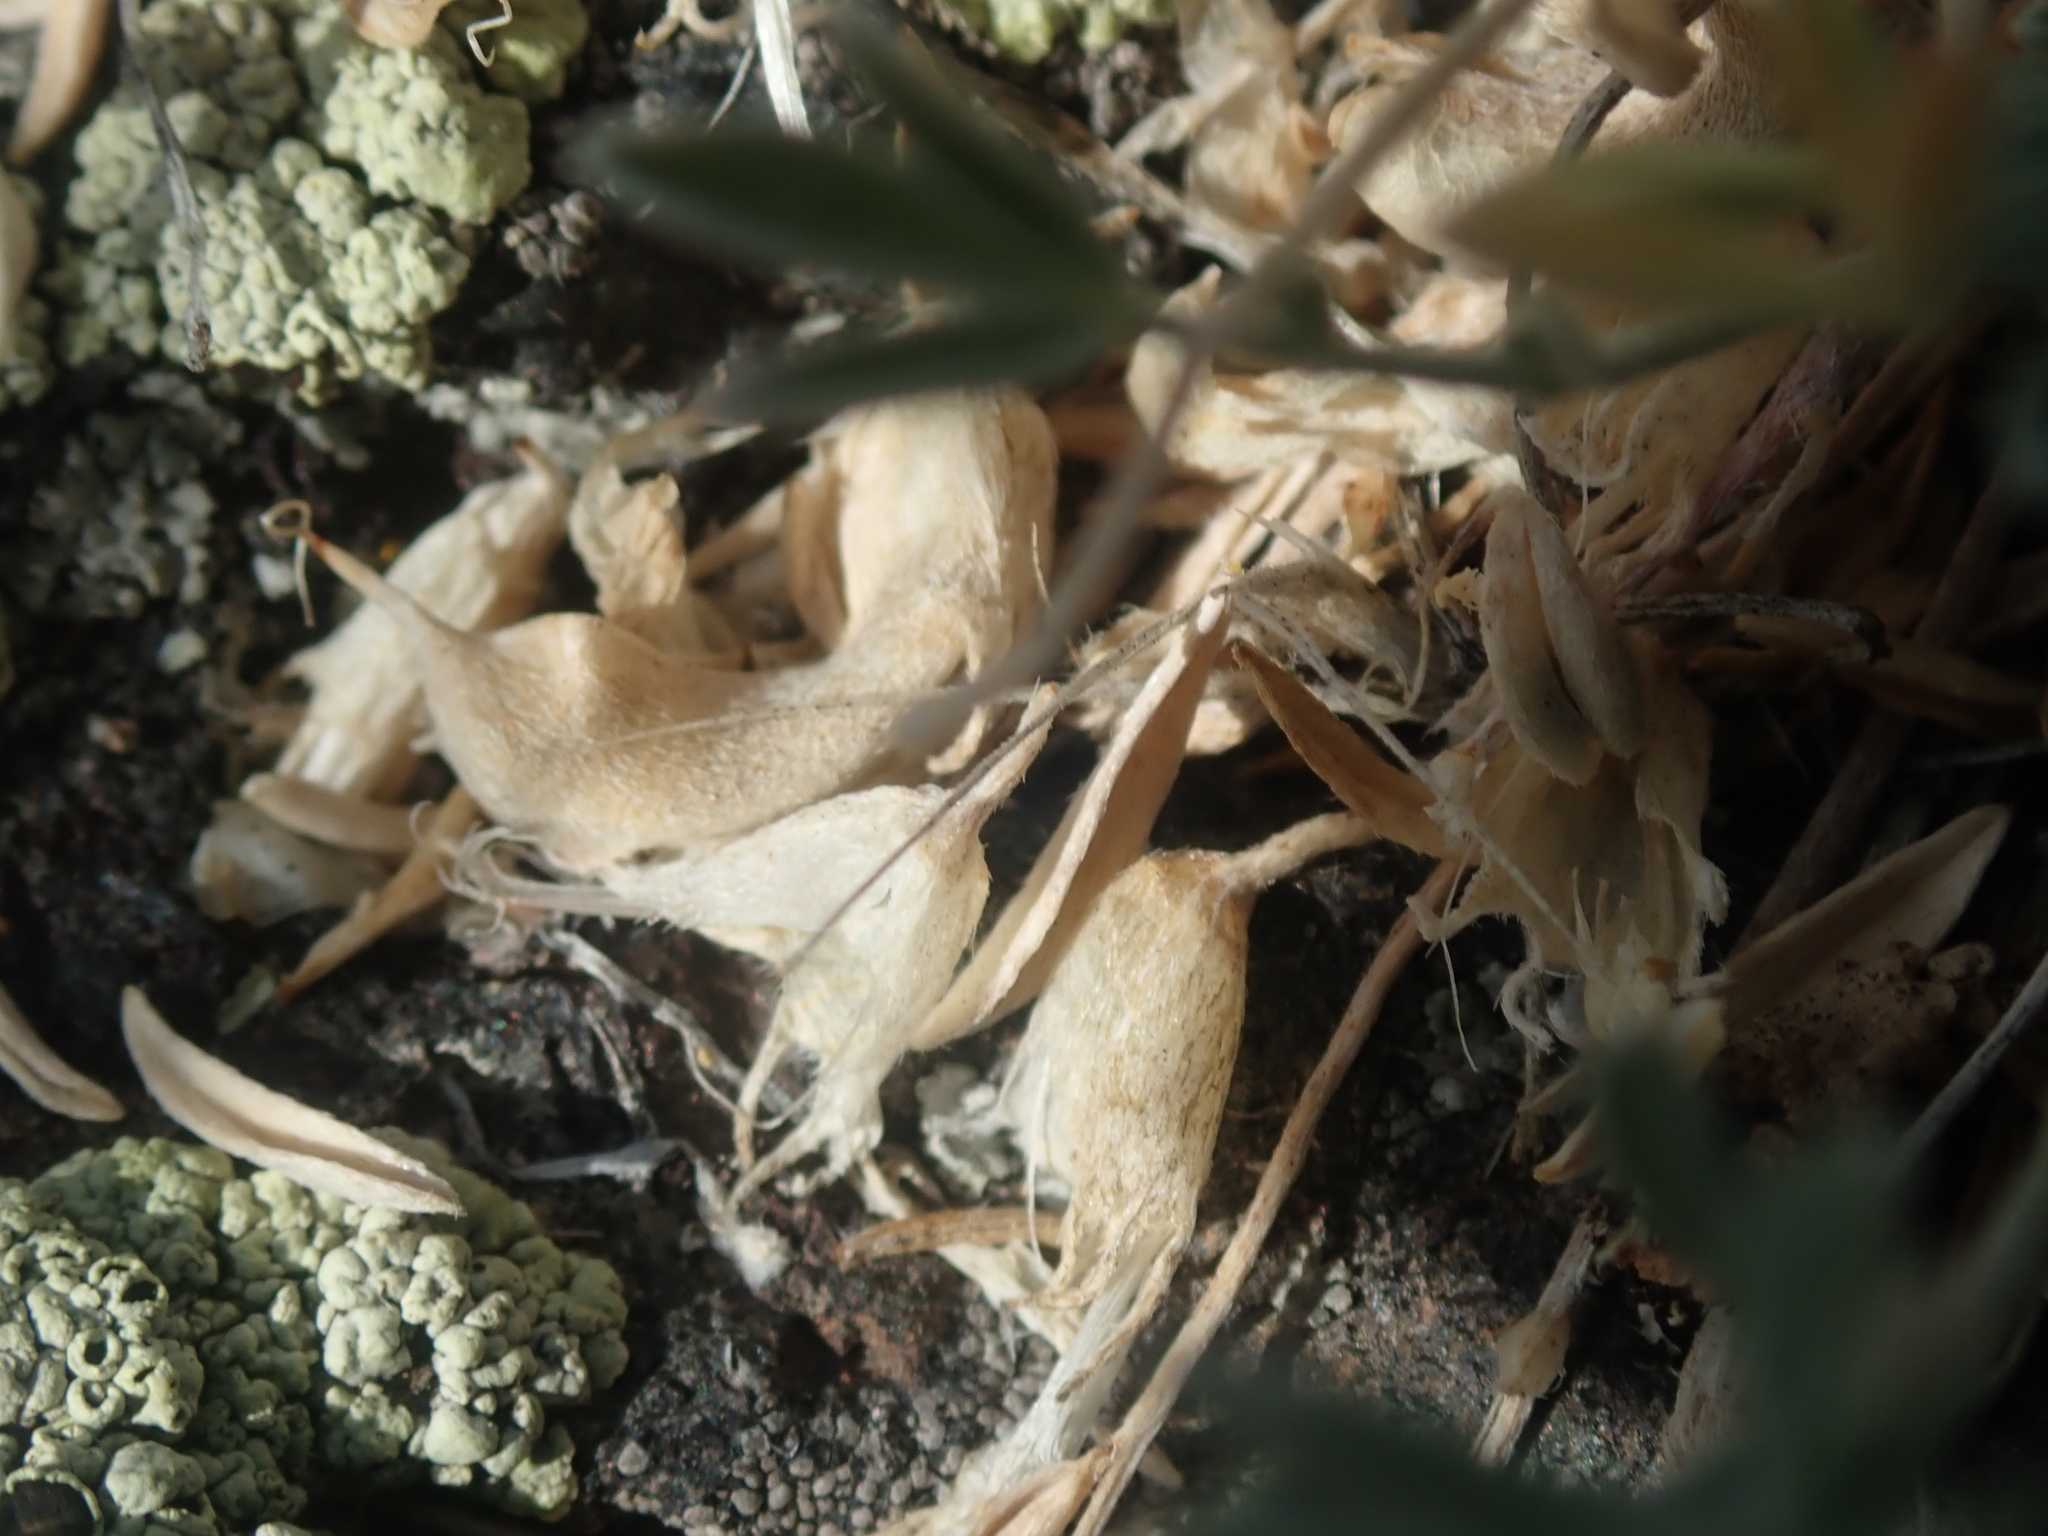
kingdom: Plantae
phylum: Tracheophyta
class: Magnoliopsida
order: Fabales
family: Fabaceae
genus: Astragalus
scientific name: Astragalus calycosus
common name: King's milkvetch
